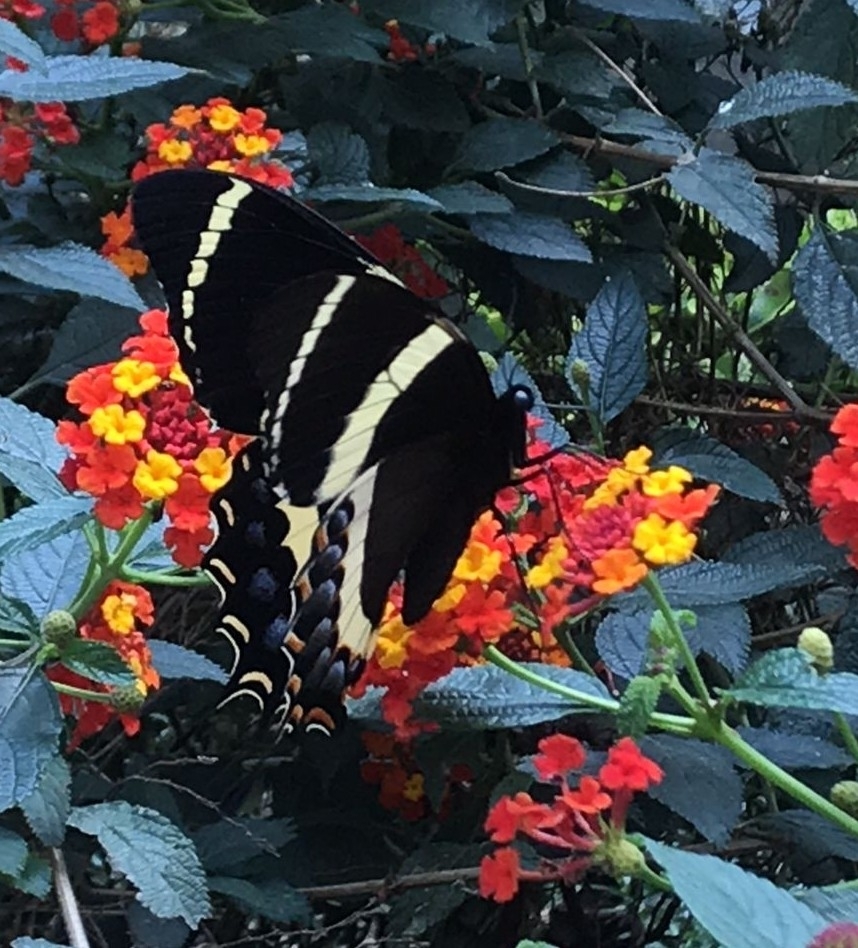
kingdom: Animalia
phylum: Arthropoda
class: Insecta
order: Lepidoptera
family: Papilionidae
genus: Papilio
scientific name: Papilio garamas
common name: Magnificent swallowtail
